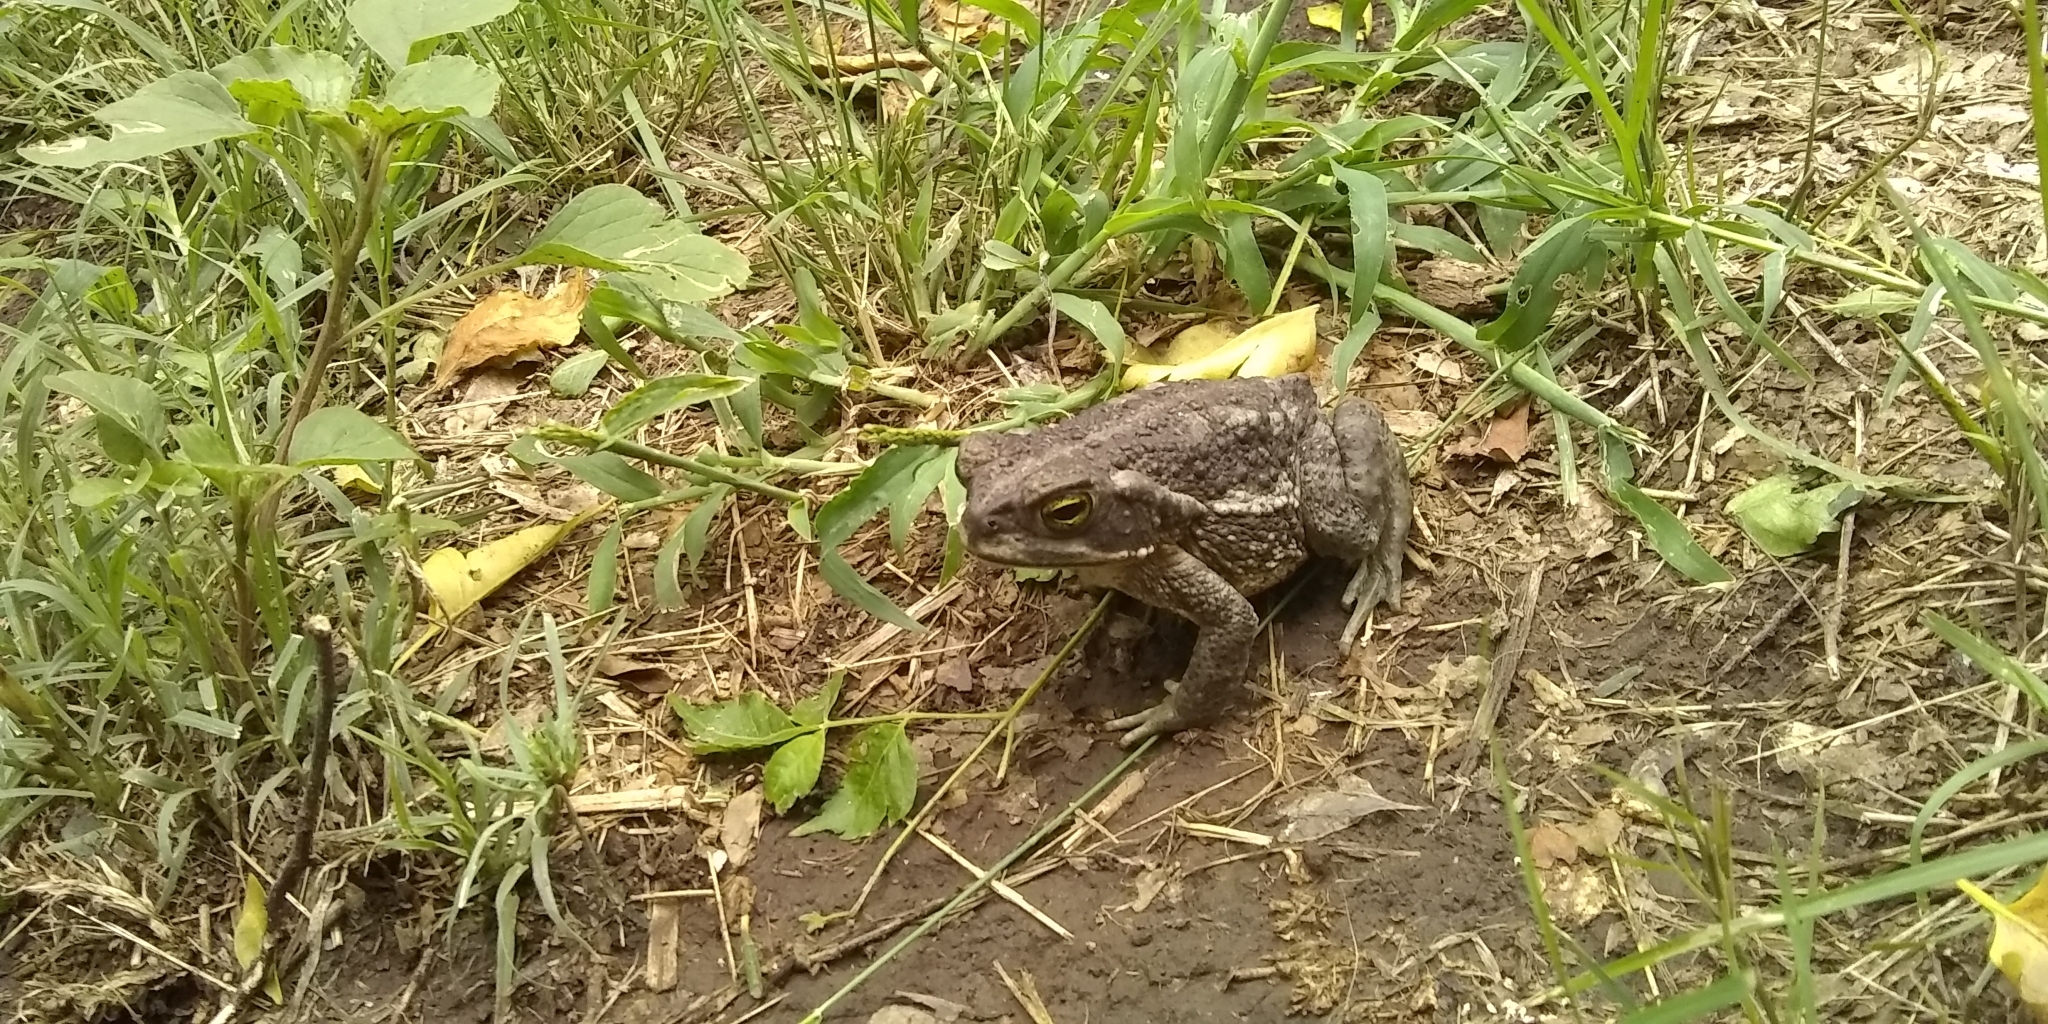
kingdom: Animalia
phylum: Chordata
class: Amphibia
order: Anura
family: Bufonidae
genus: Rhinella
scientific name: Rhinella arenarum
